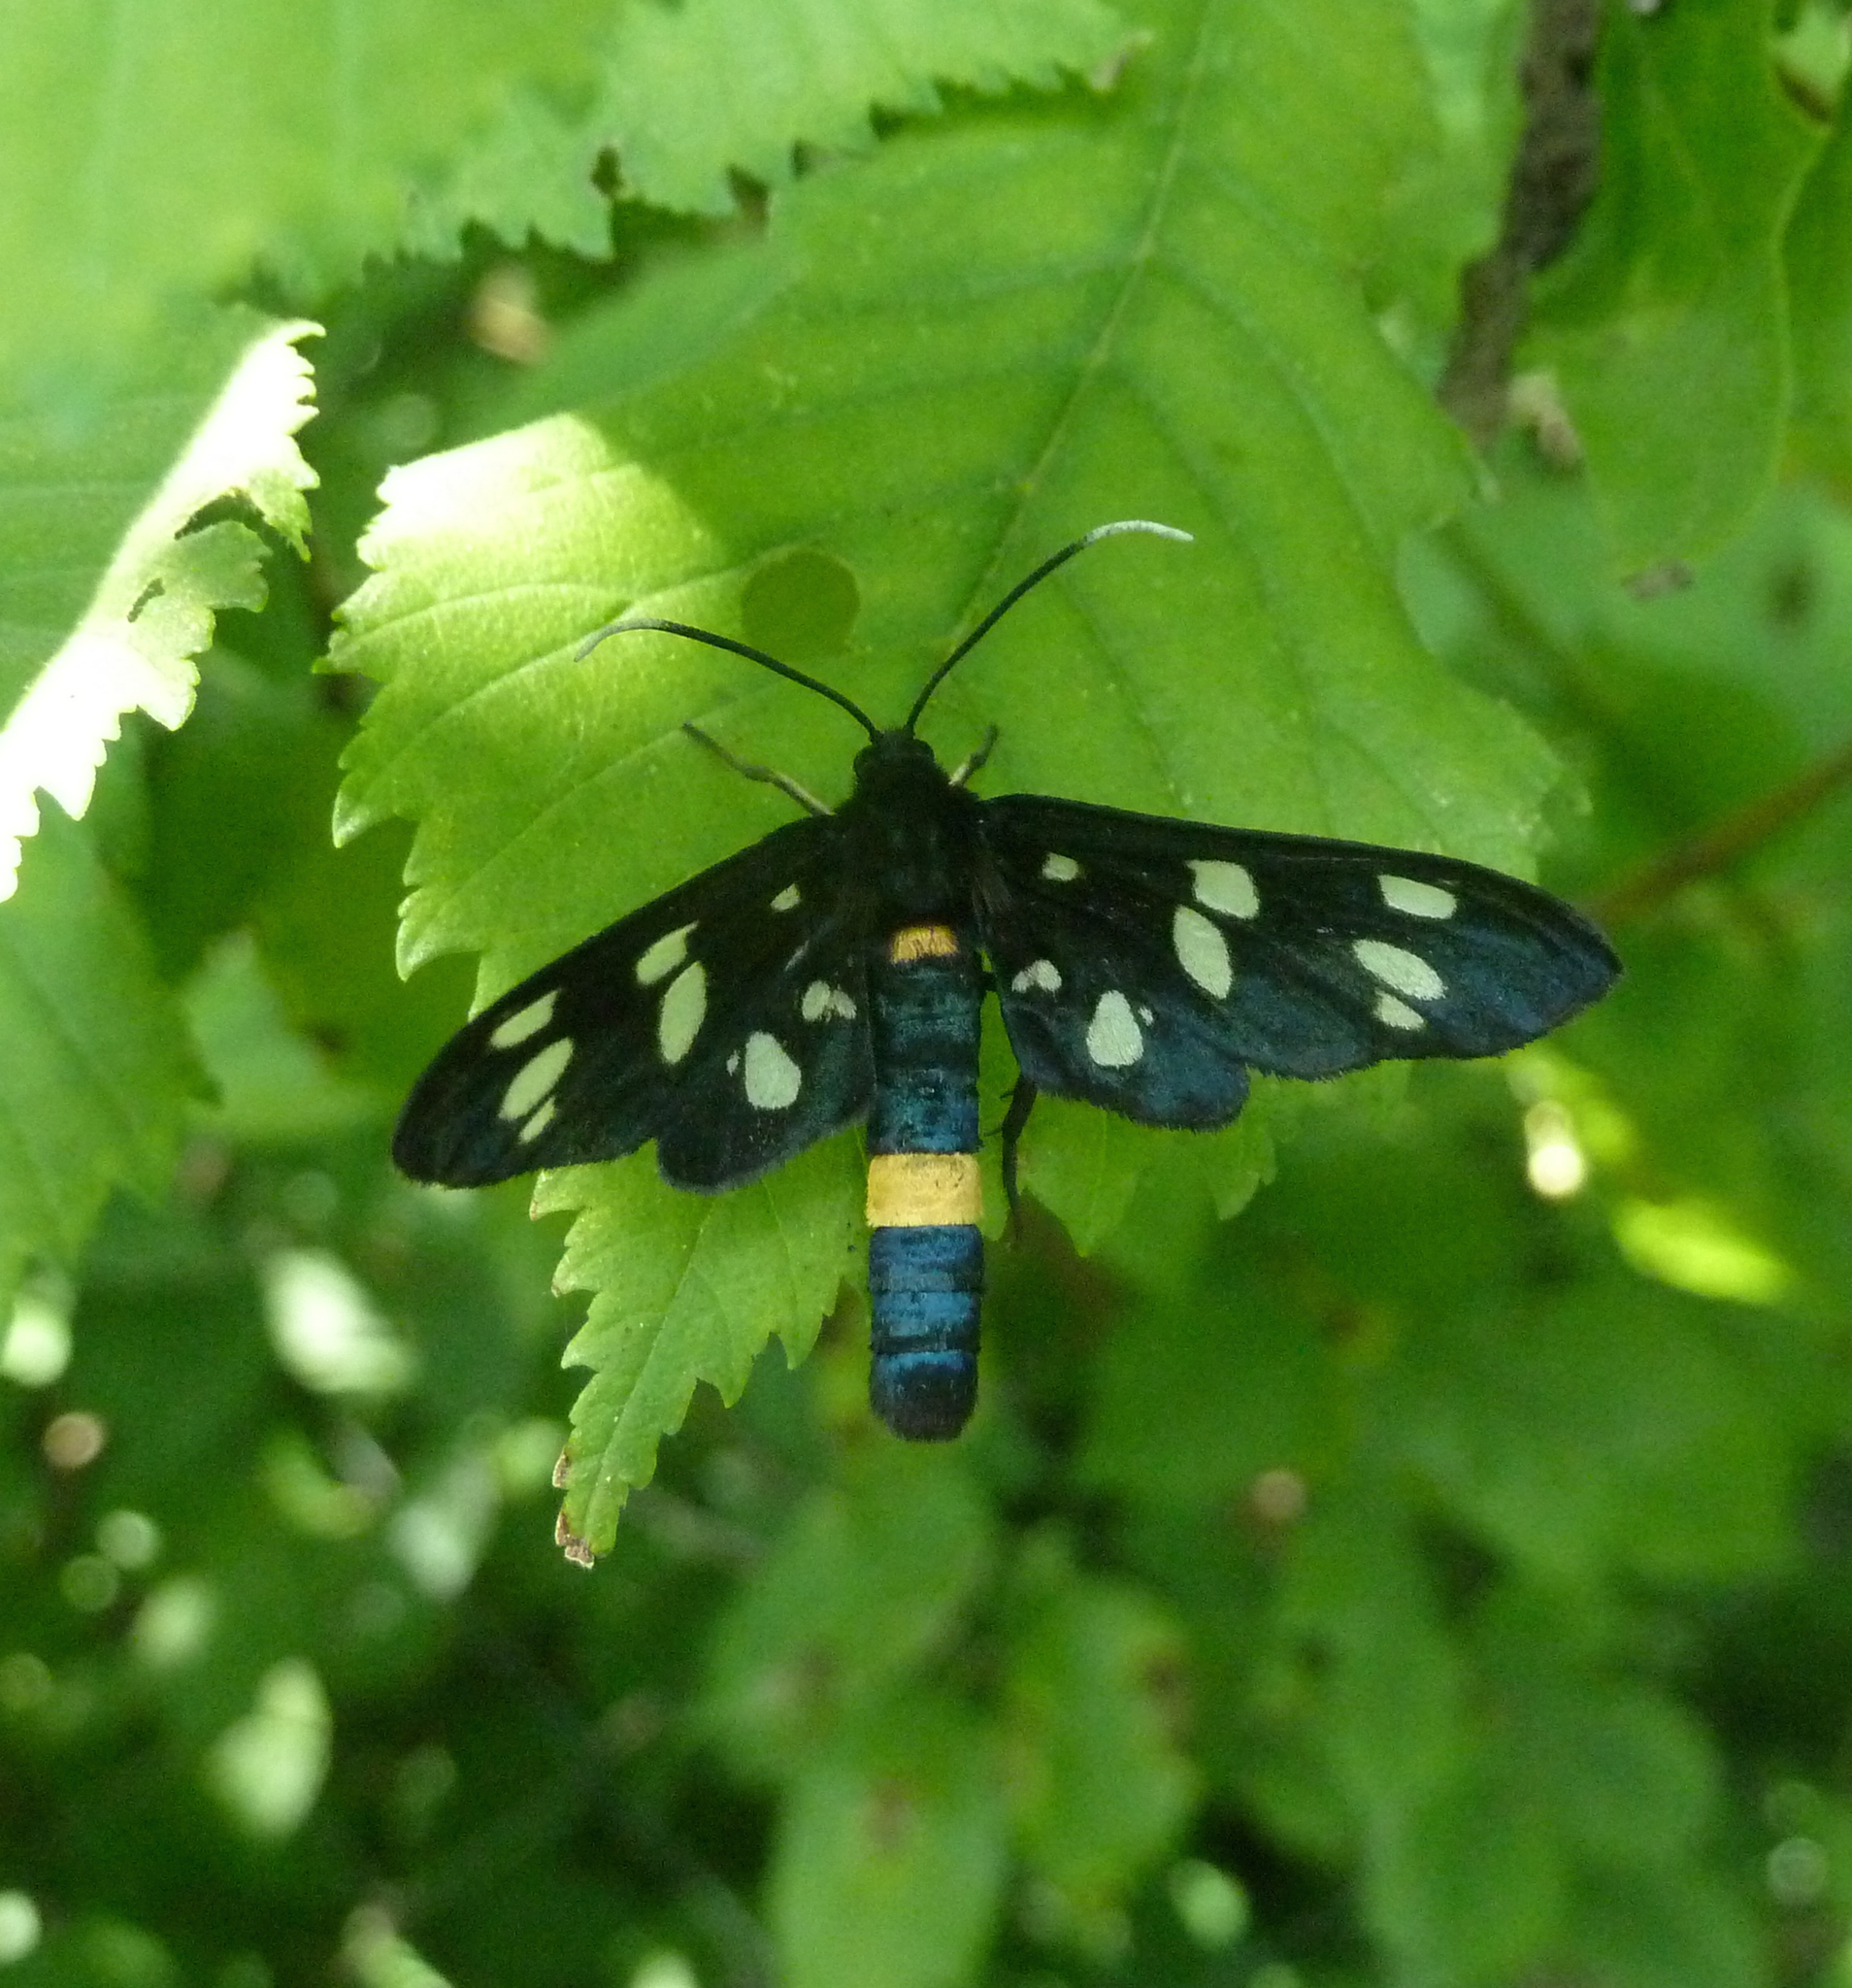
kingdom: Animalia
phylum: Arthropoda
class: Insecta
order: Lepidoptera
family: Erebidae
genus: Amata
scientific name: Amata phegea
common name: Nine-spotted
